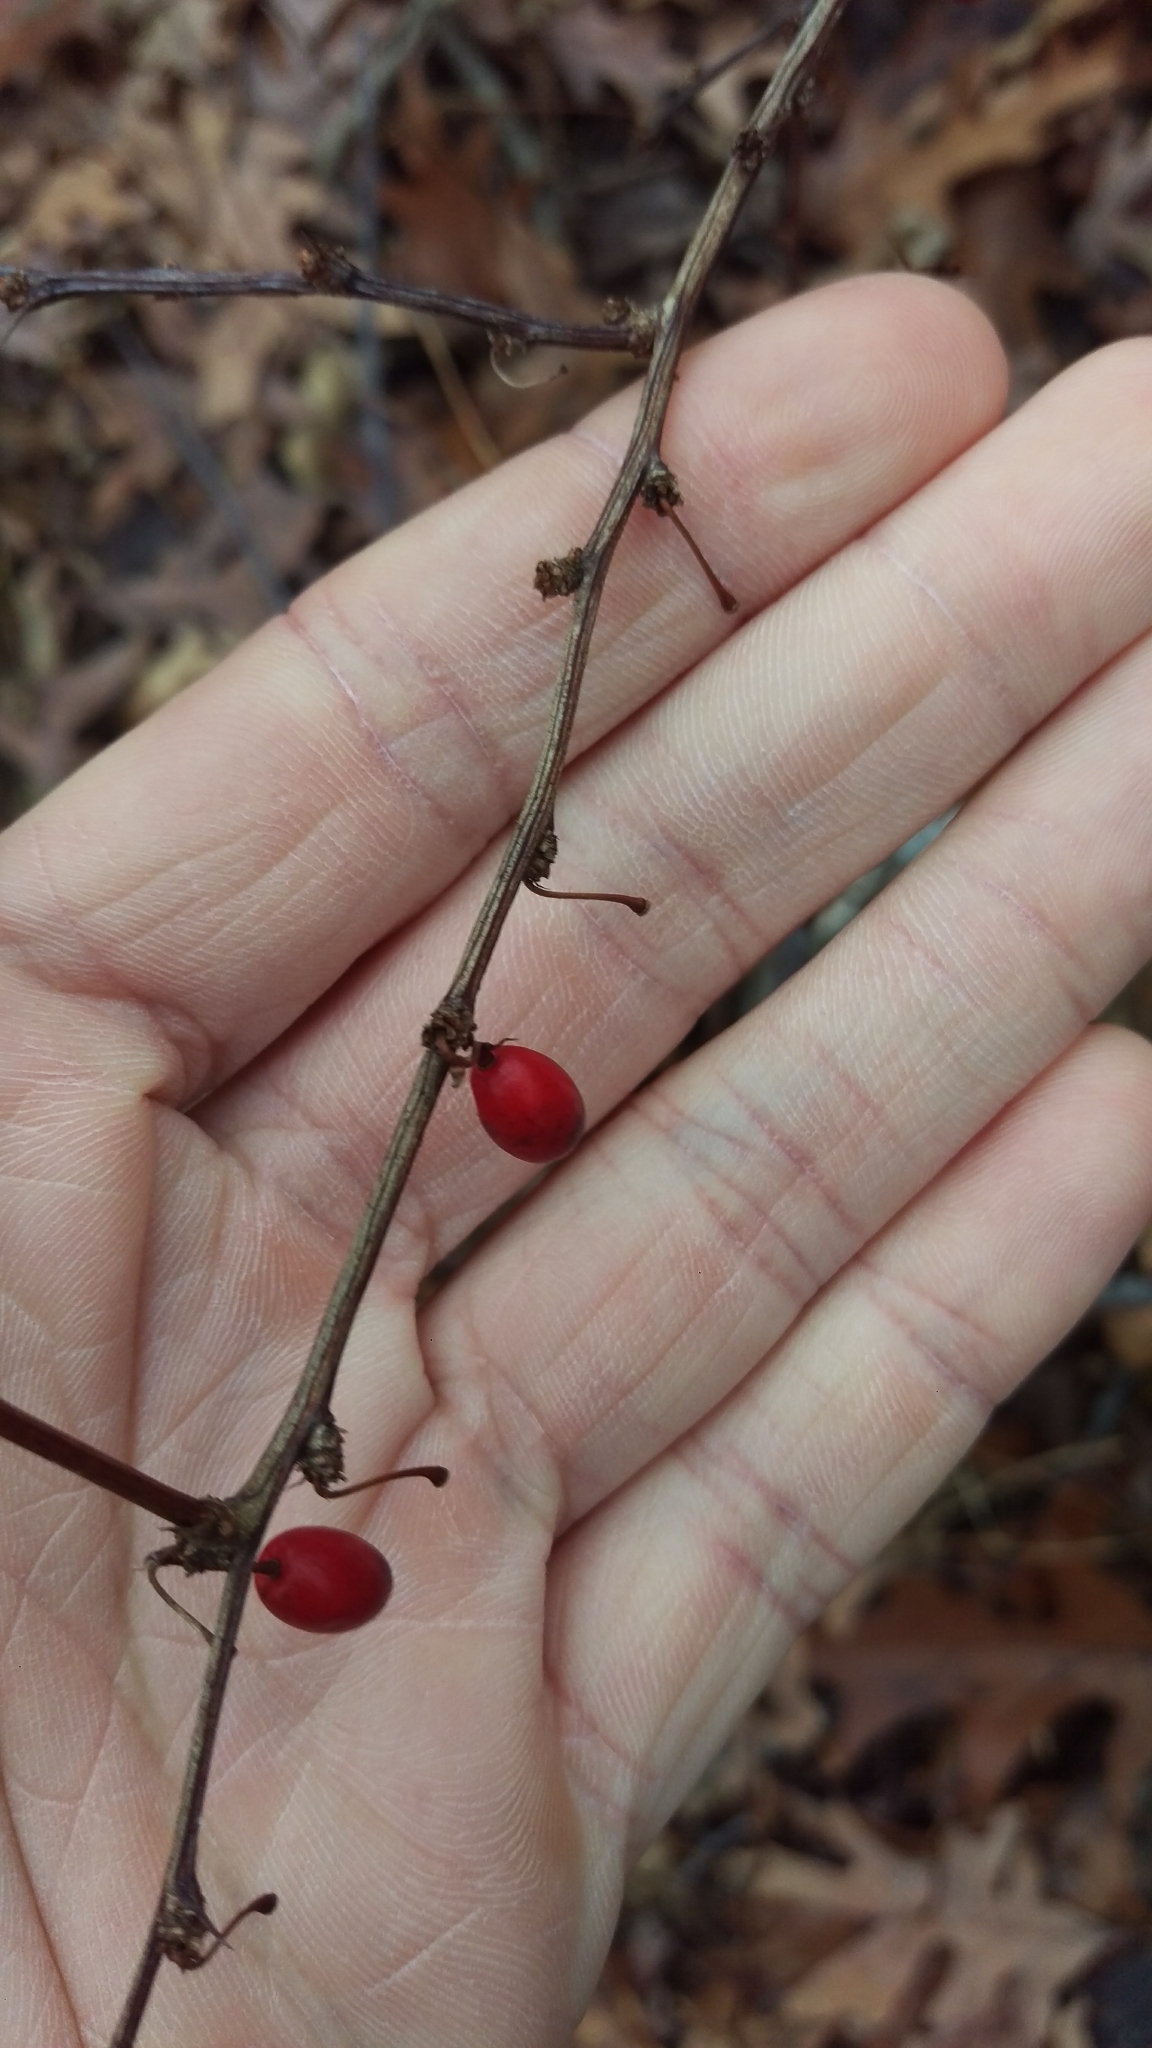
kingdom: Plantae
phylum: Tracheophyta
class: Magnoliopsida
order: Ranunculales
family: Berberidaceae
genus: Berberis
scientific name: Berberis thunbergii
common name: Japanese barberry
